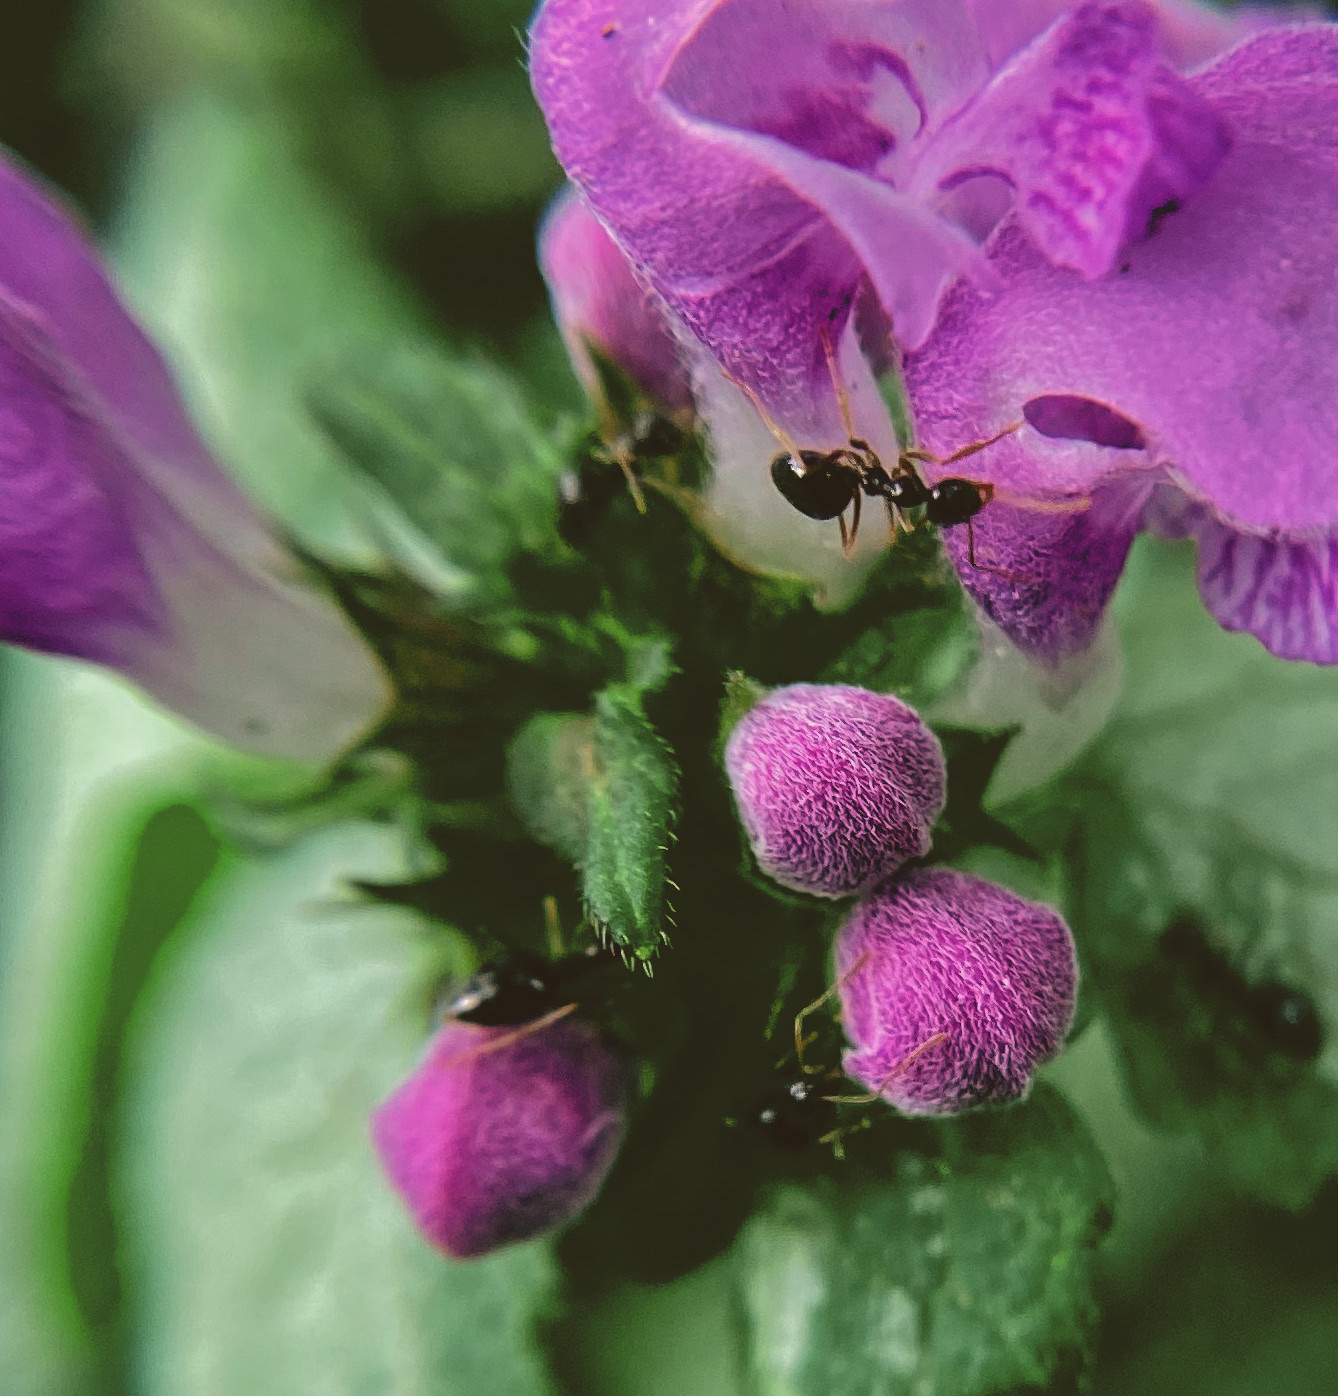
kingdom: Animalia
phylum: Arthropoda
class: Insecta
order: Hymenoptera
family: Formicidae
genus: Prenolepis
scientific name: Prenolepis imparis
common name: Small honey ant
